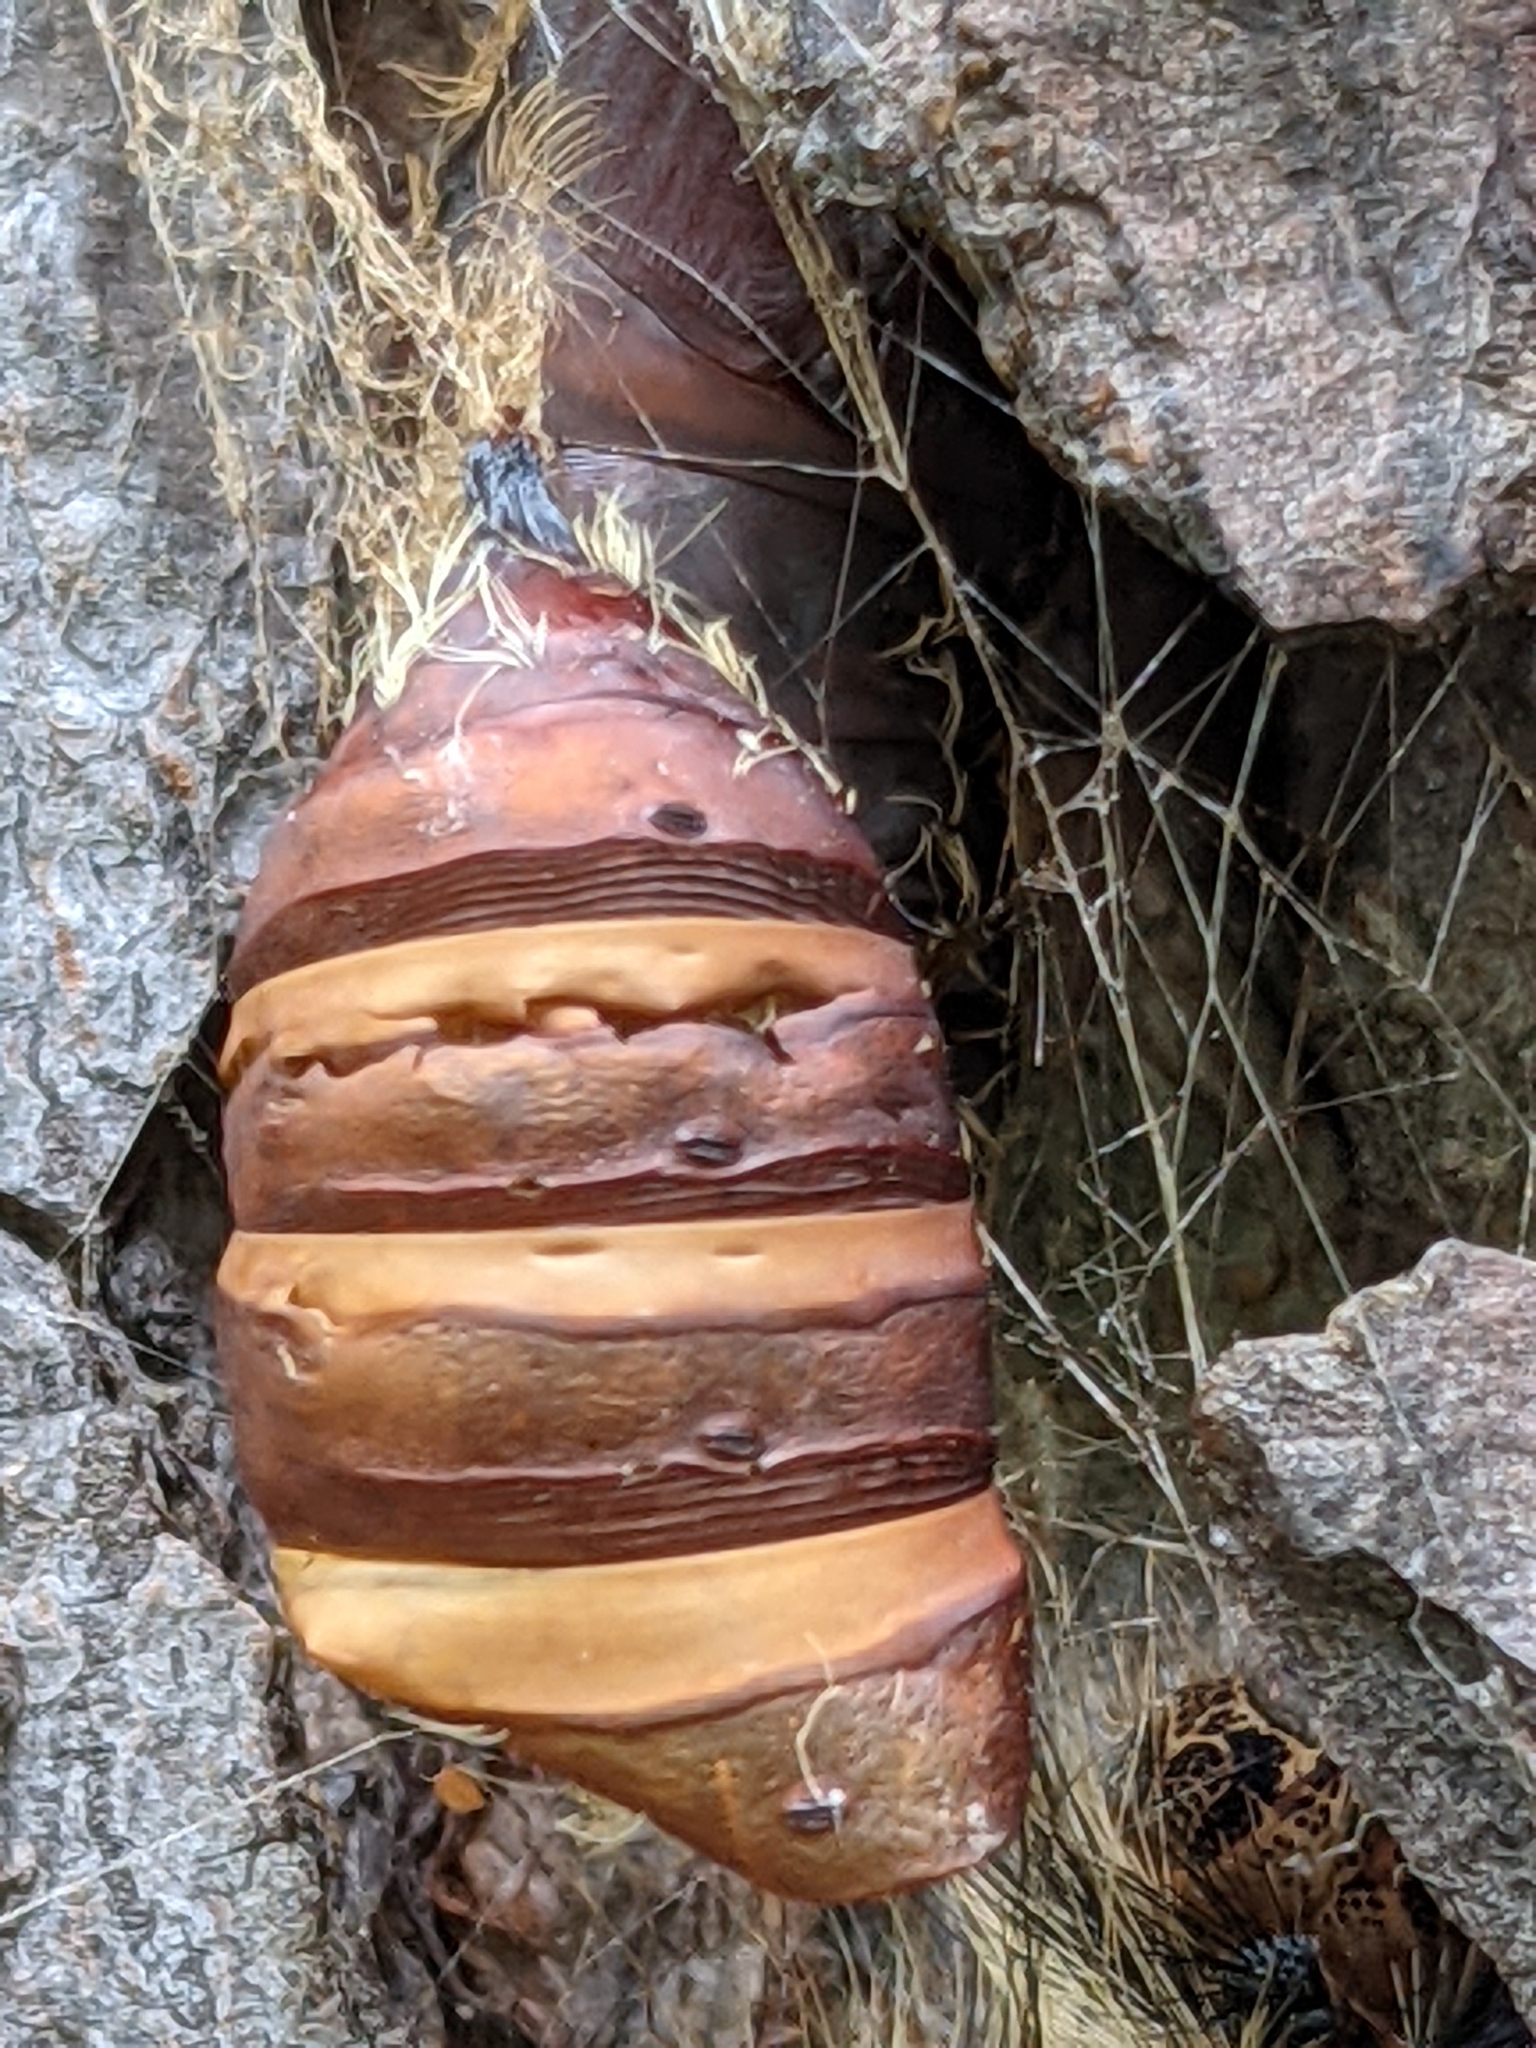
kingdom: Animalia
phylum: Arthropoda
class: Insecta
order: Lepidoptera
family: Erebidae
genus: Lymantria
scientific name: Lymantria dispar
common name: Gypsy moth
